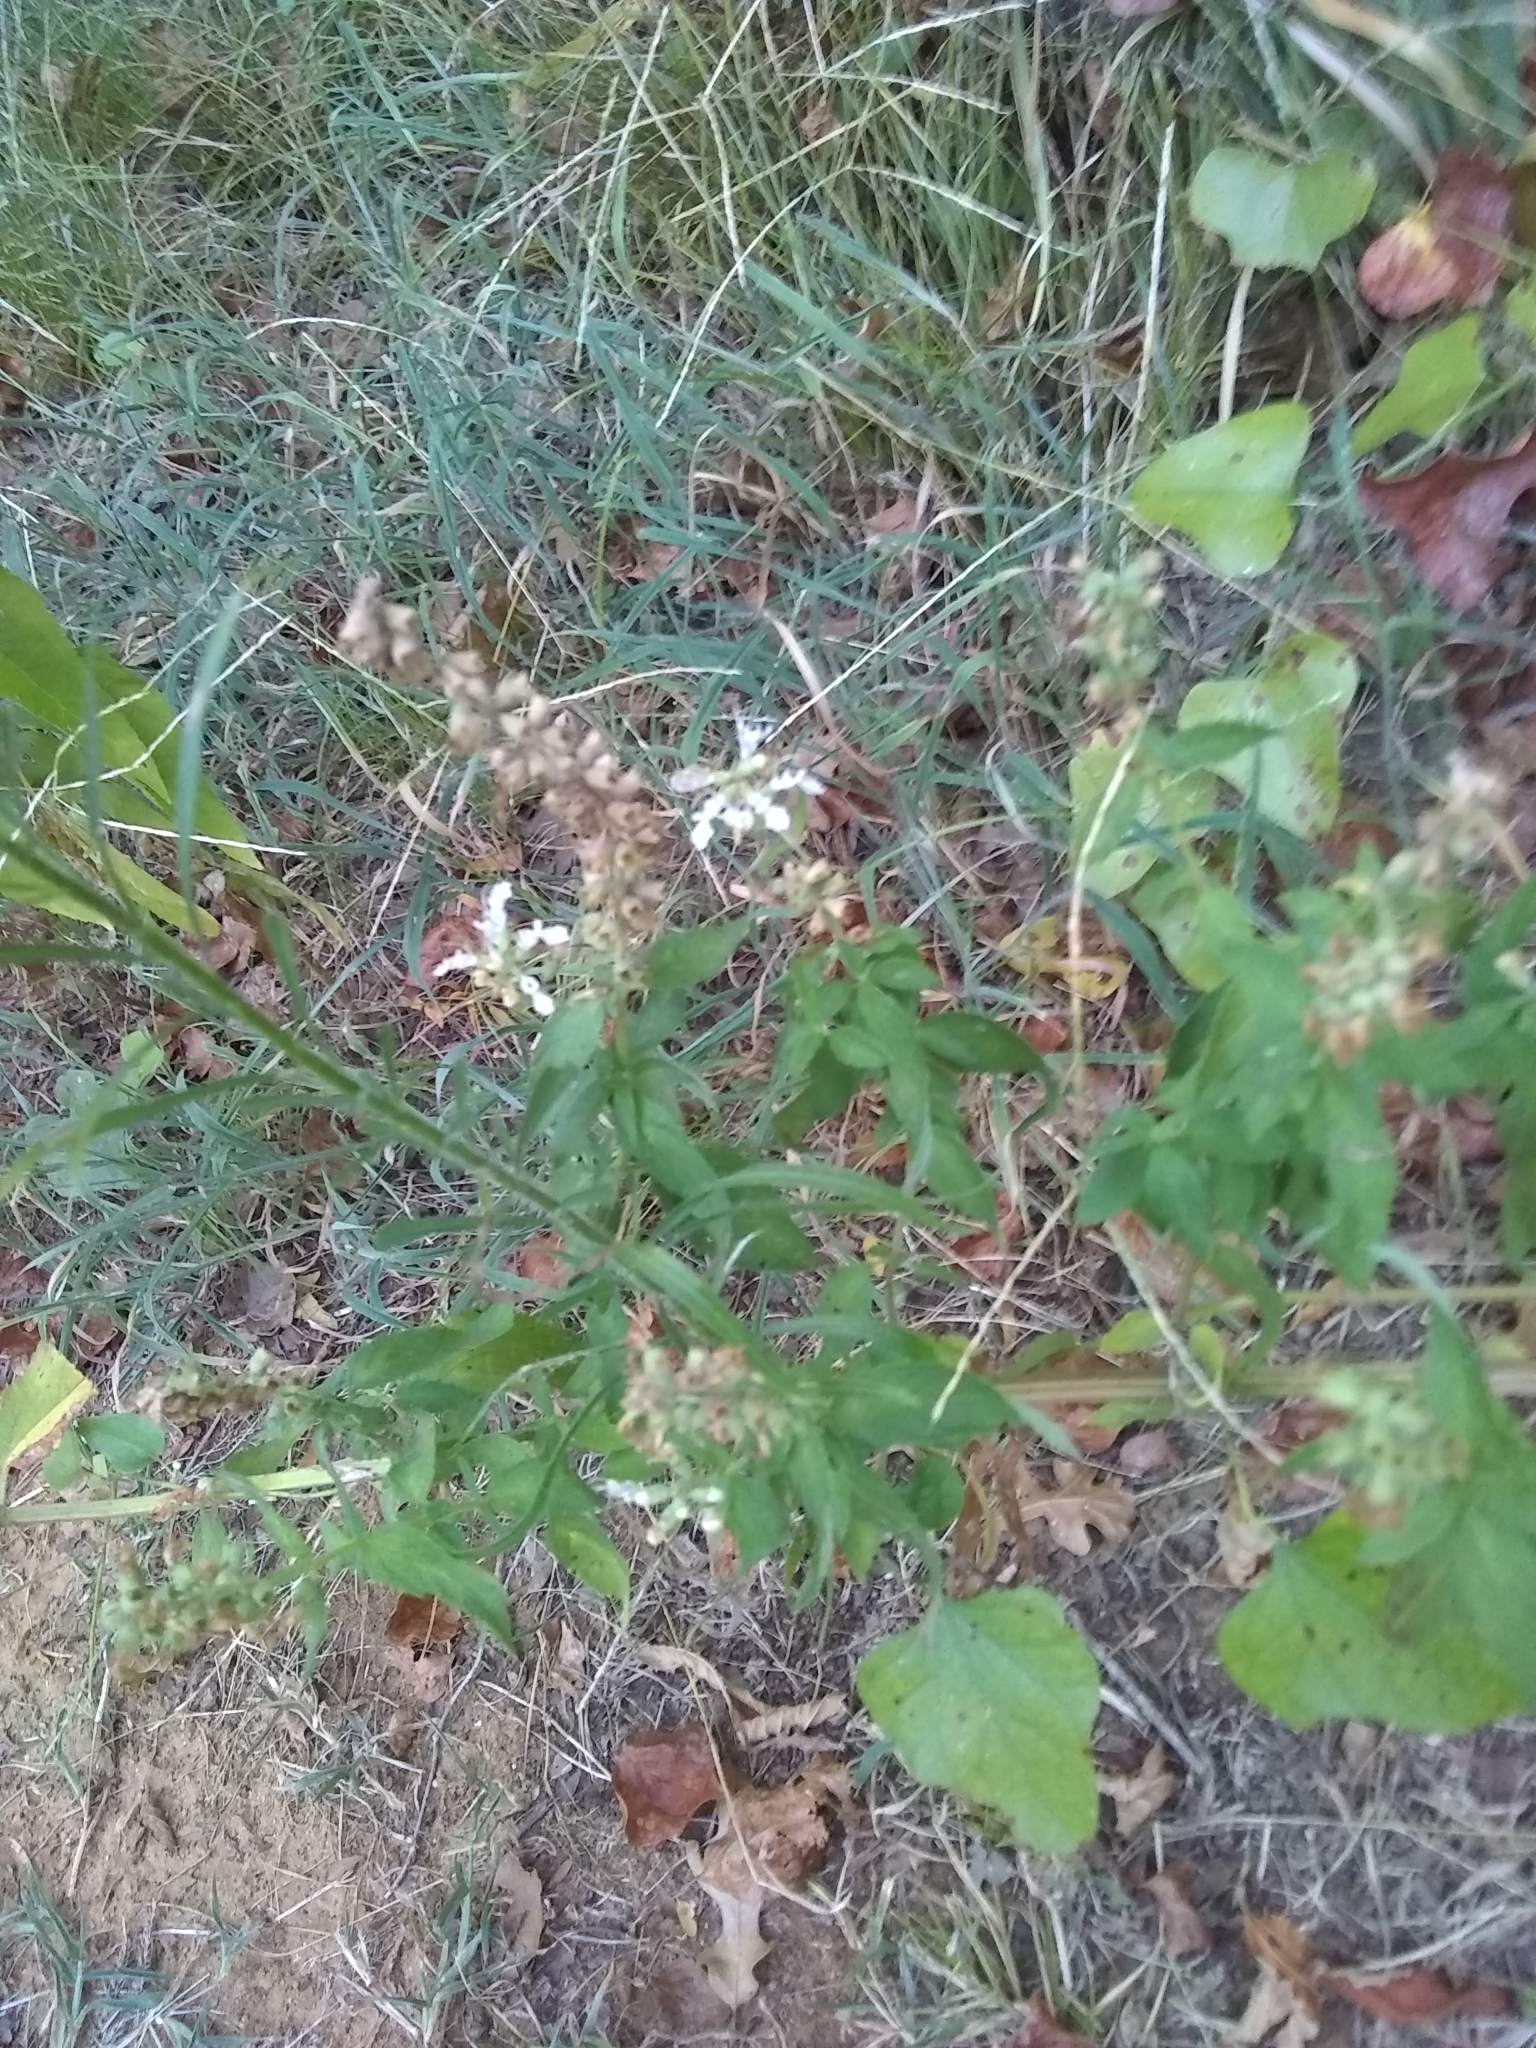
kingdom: Plantae
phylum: Tracheophyta
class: Magnoliopsida
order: Lamiales
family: Lamiaceae
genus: Teucrium
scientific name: Teucrium canadense
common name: American germander
